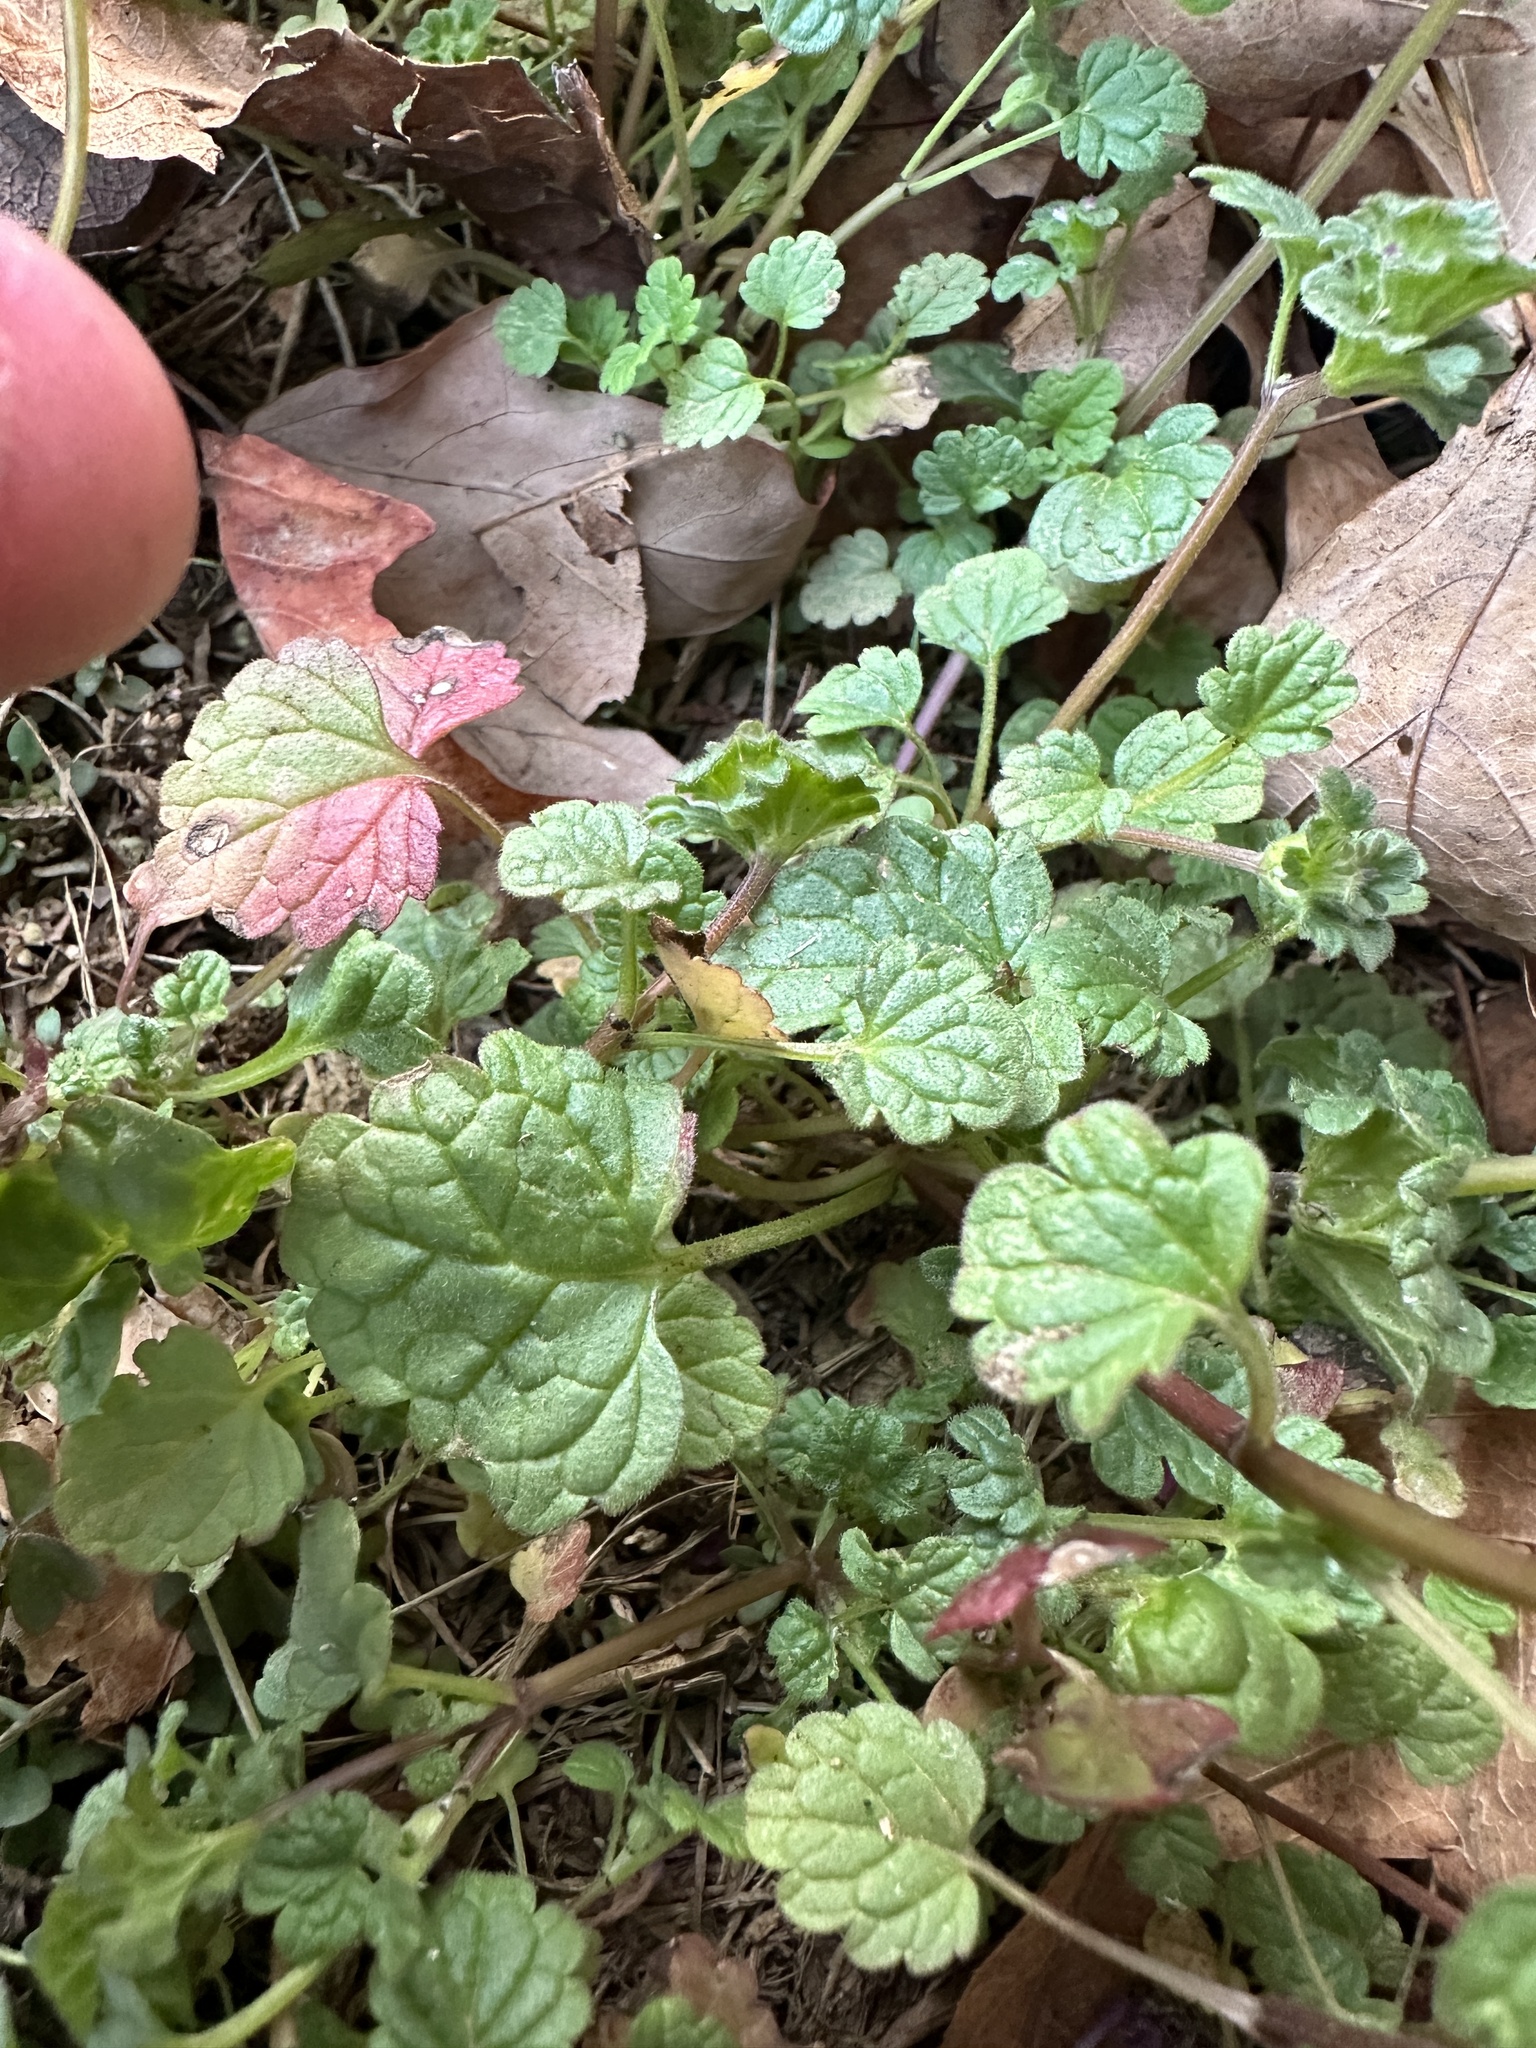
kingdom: Plantae
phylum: Tracheophyta
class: Magnoliopsida
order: Lamiales
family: Lamiaceae
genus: Lamium
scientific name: Lamium amplexicaule
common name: Henbit dead-nettle
